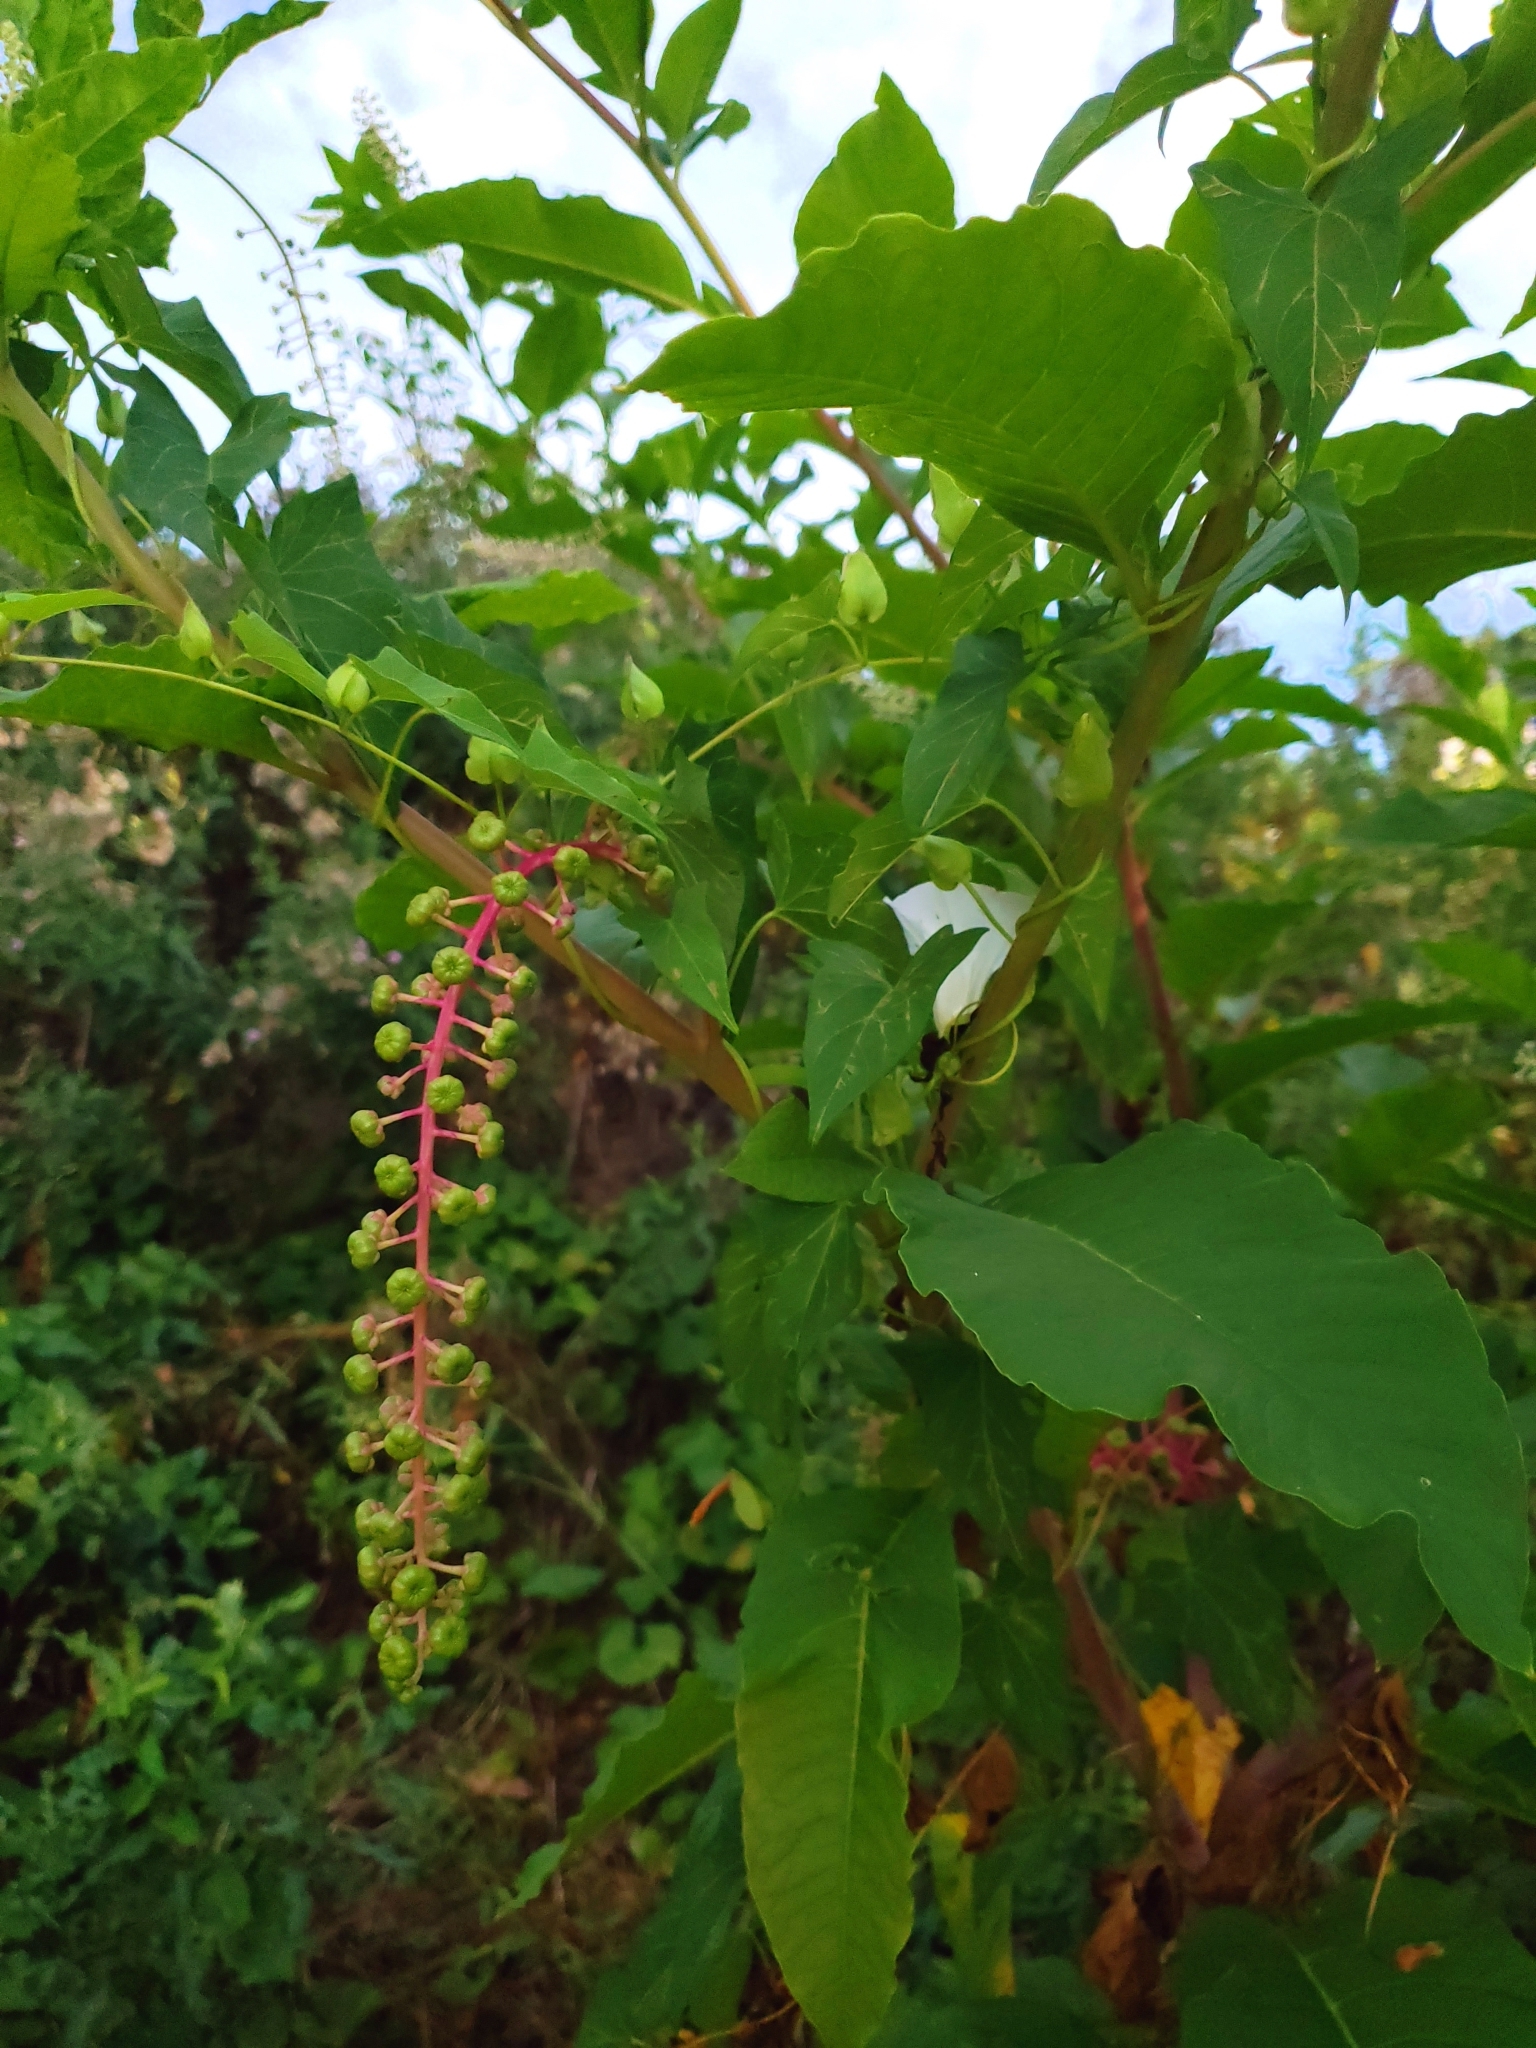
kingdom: Plantae
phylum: Tracheophyta
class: Magnoliopsida
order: Caryophyllales
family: Phytolaccaceae
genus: Phytolacca
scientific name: Phytolacca americana
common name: American pokeweed
